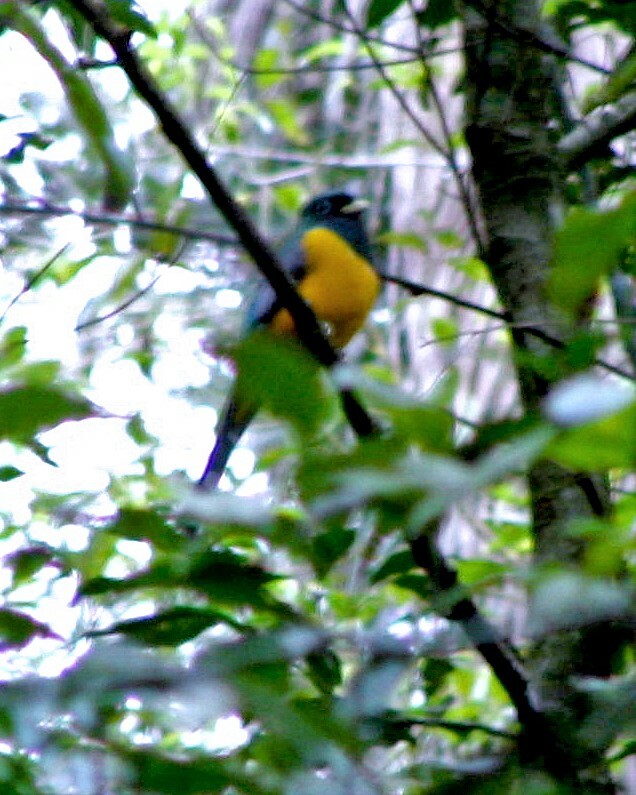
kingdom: Animalia
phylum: Chordata
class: Aves
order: Trogoniformes
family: Trogonidae
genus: Trogon
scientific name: Trogon rufus
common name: Black-throated trogon
